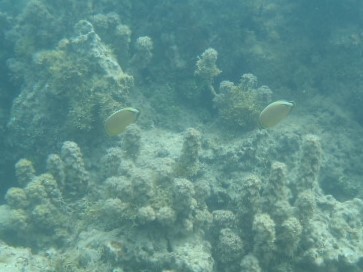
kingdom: Animalia
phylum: Chordata
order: Perciformes
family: Chaetodontidae
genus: Chaetodon
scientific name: Chaetodon lunulatus
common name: Redfin butterflyfish
